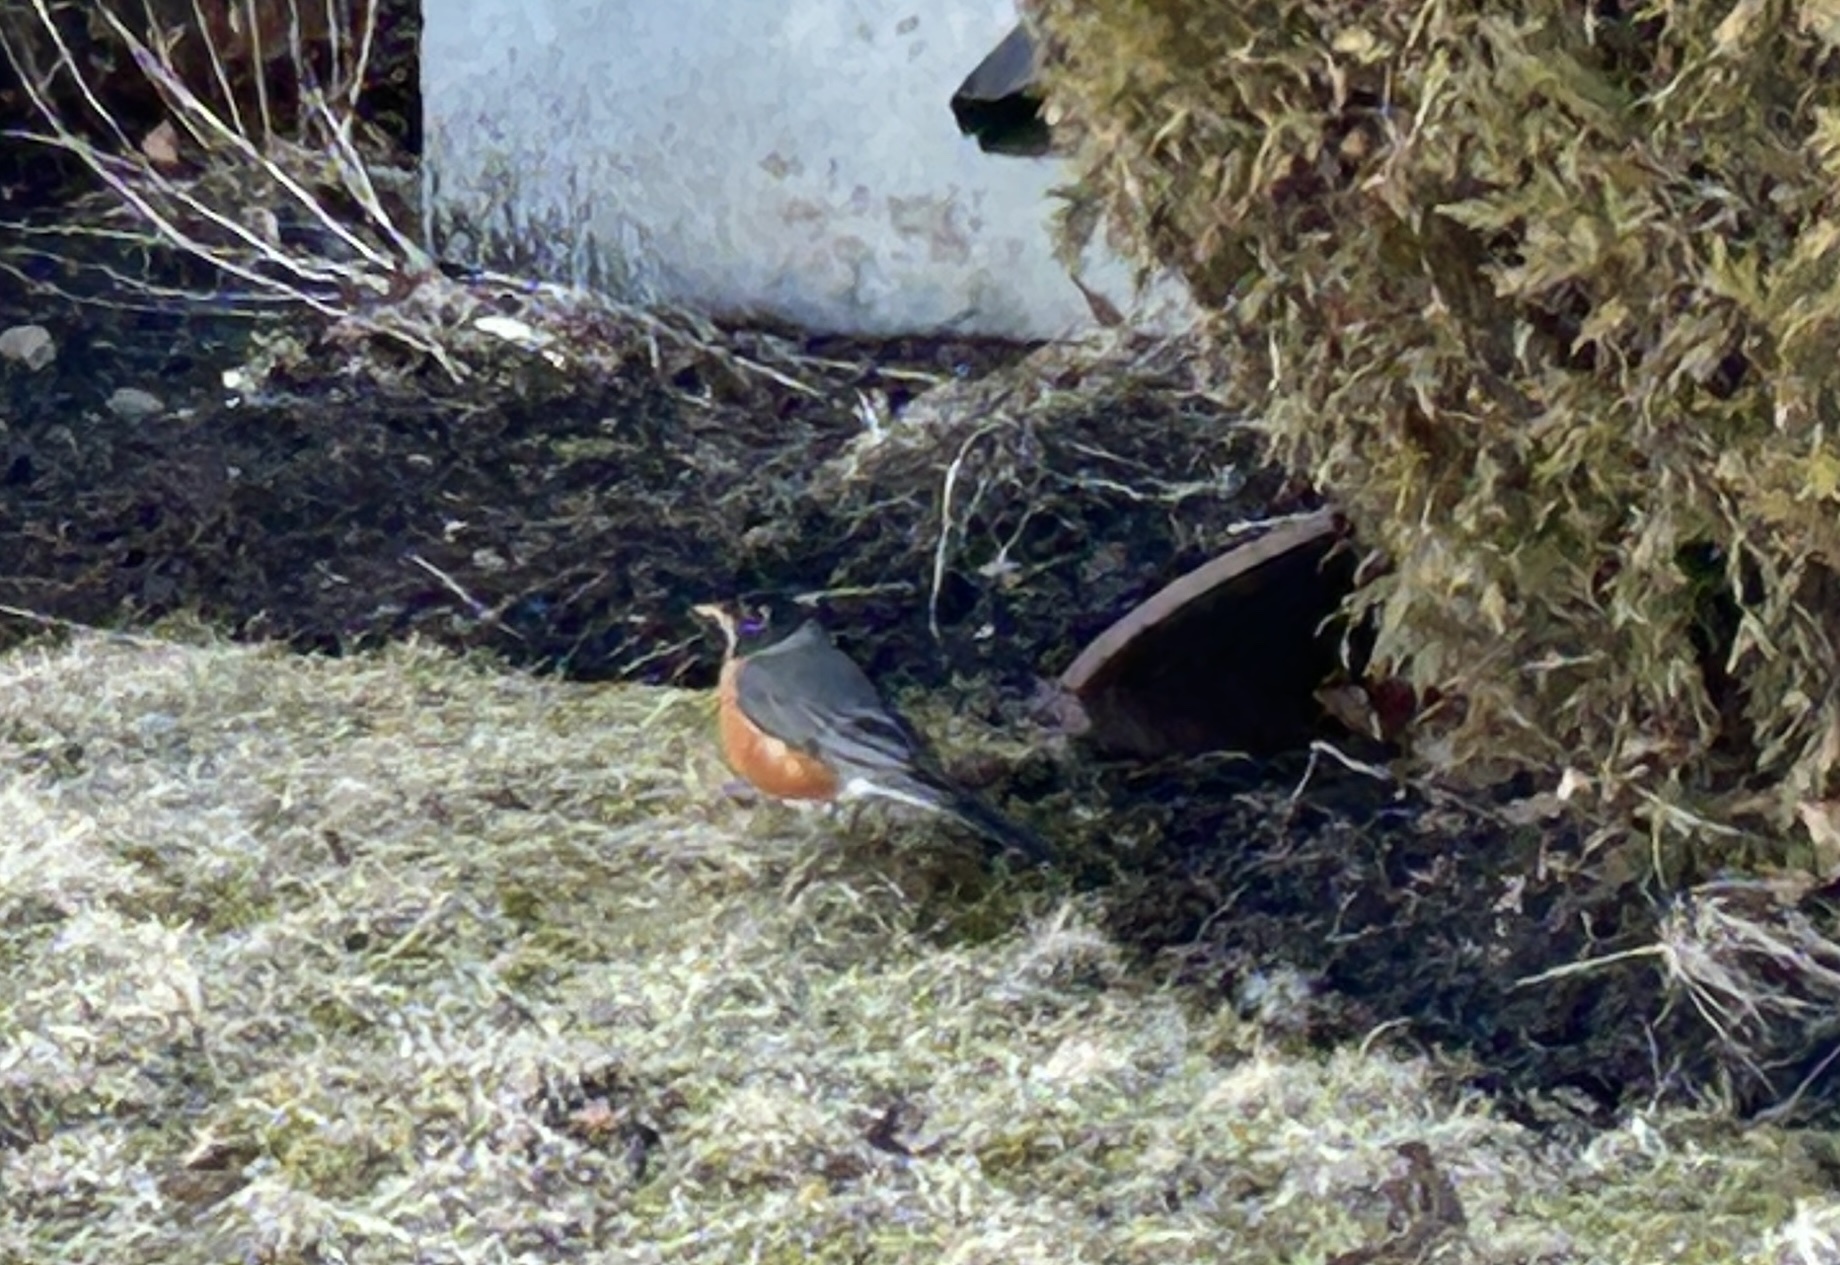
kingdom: Animalia
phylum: Chordata
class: Aves
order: Passeriformes
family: Turdidae
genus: Turdus
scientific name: Turdus migratorius
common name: American robin
